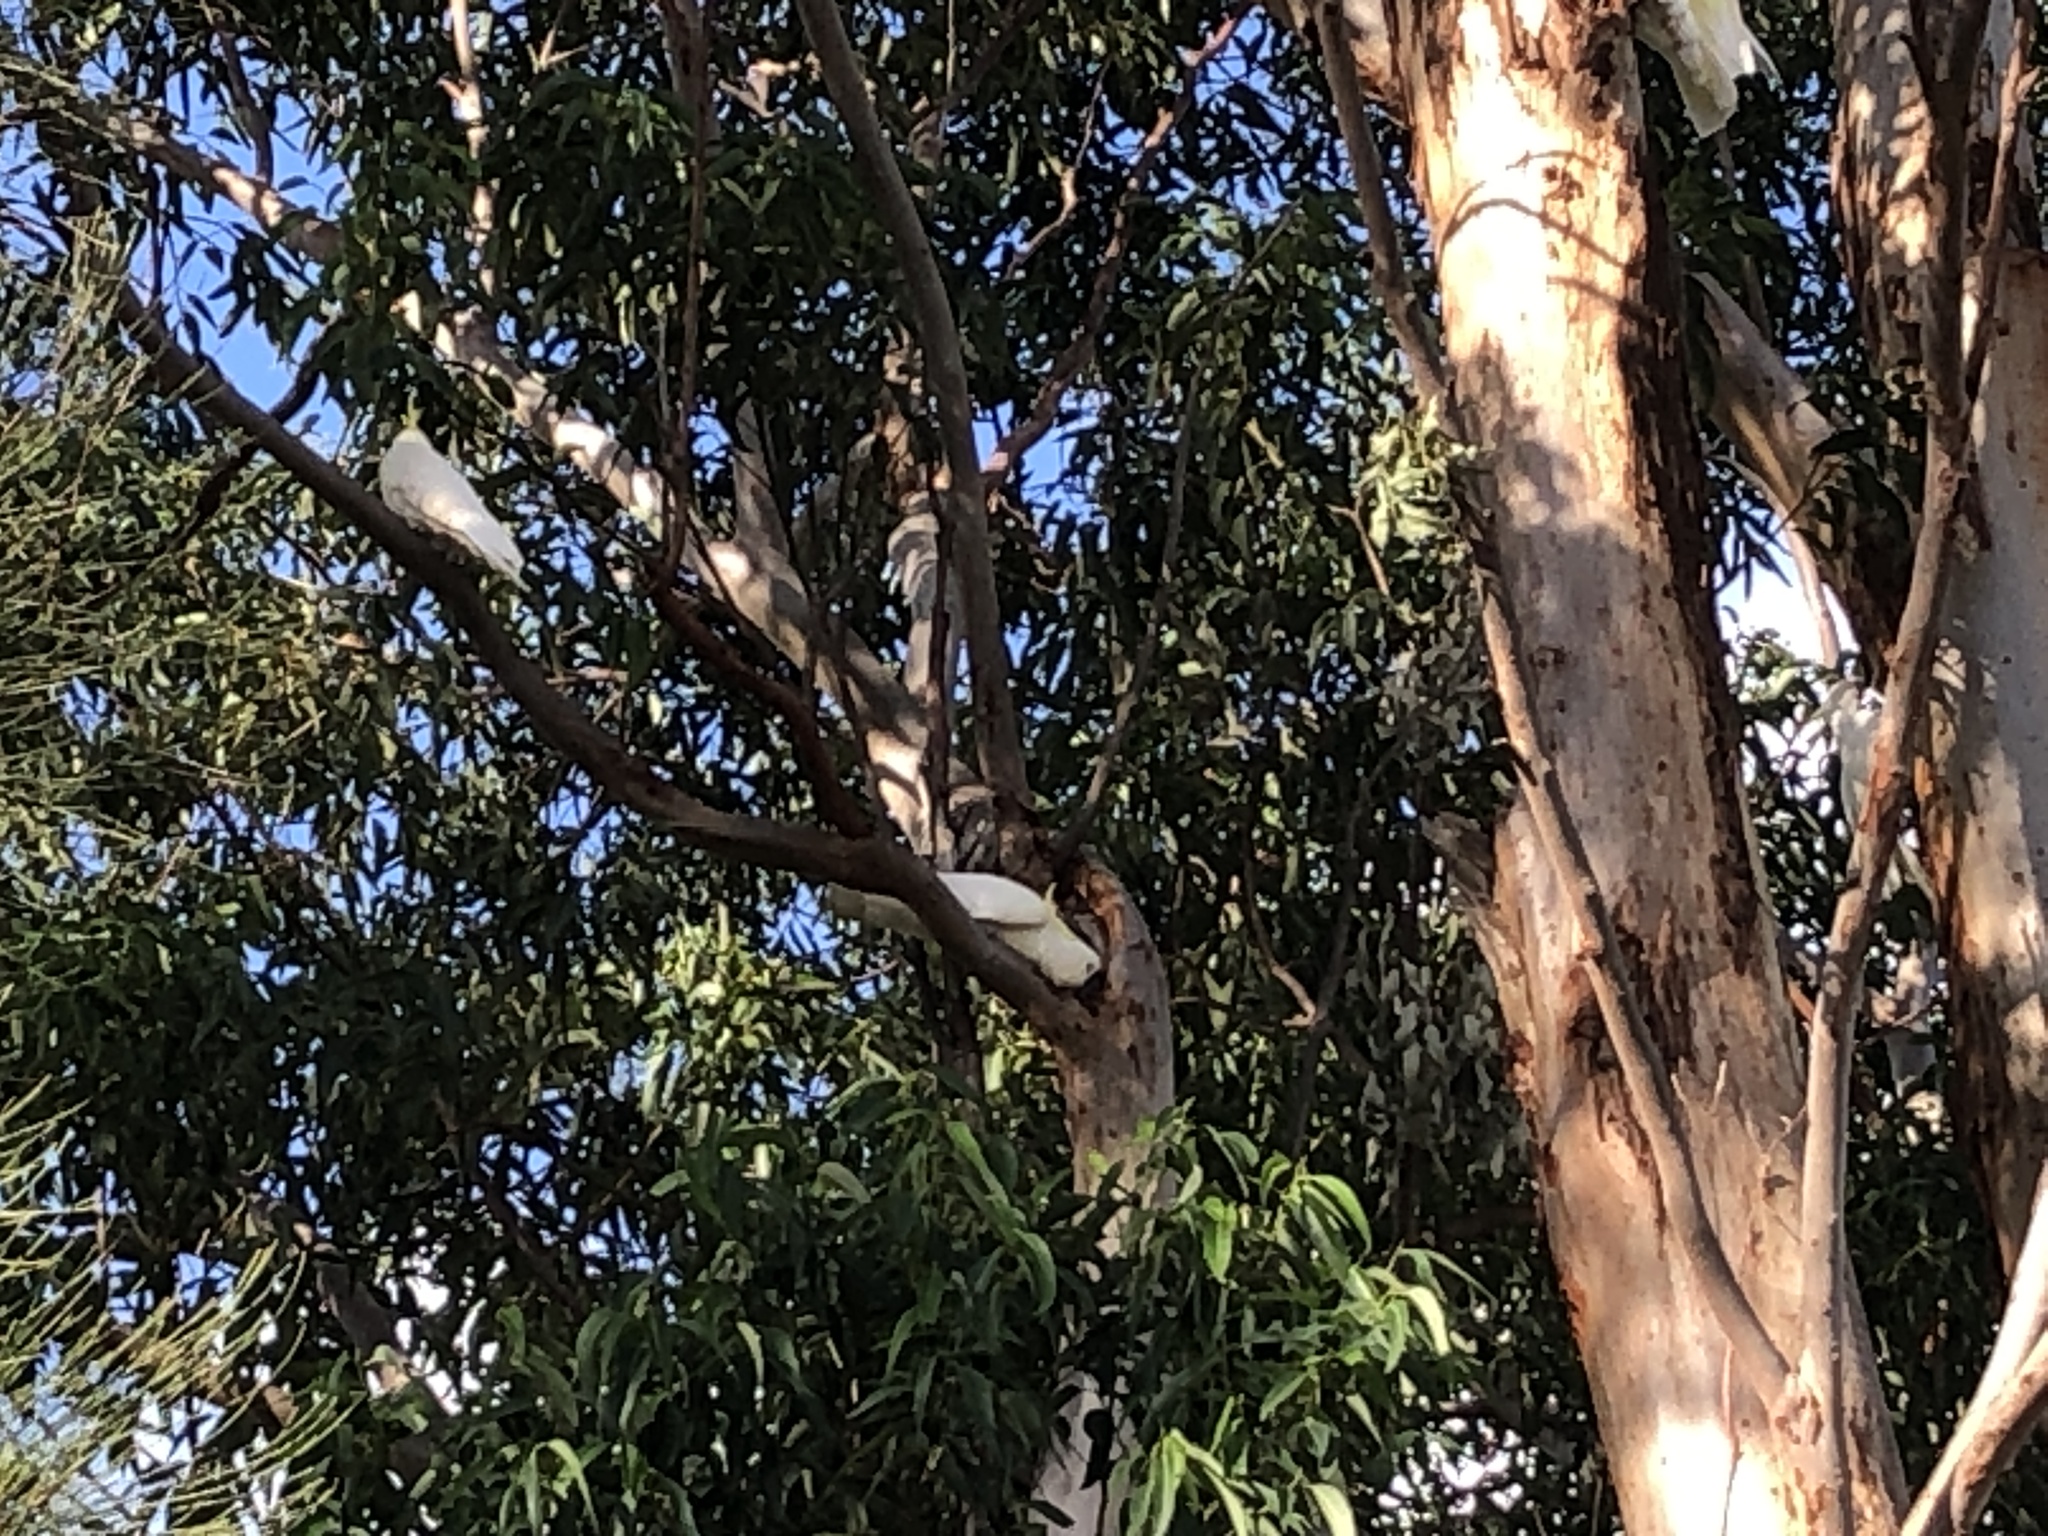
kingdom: Animalia
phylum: Chordata
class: Aves
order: Psittaciformes
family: Psittacidae
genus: Cacatua
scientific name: Cacatua galerita
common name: Sulphur-crested cockatoo
